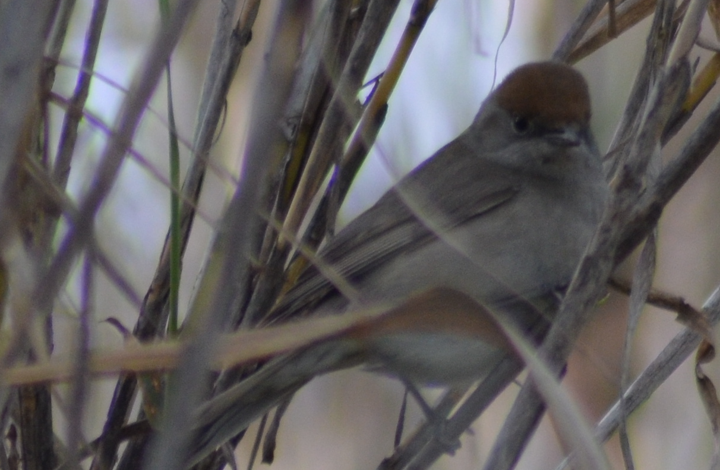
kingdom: Animalia
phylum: Chordata
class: Aves
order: Passeriformes
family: Sylviidae
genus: Sylvia
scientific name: Sylvia atricapilla
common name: Eurasian blackcap
